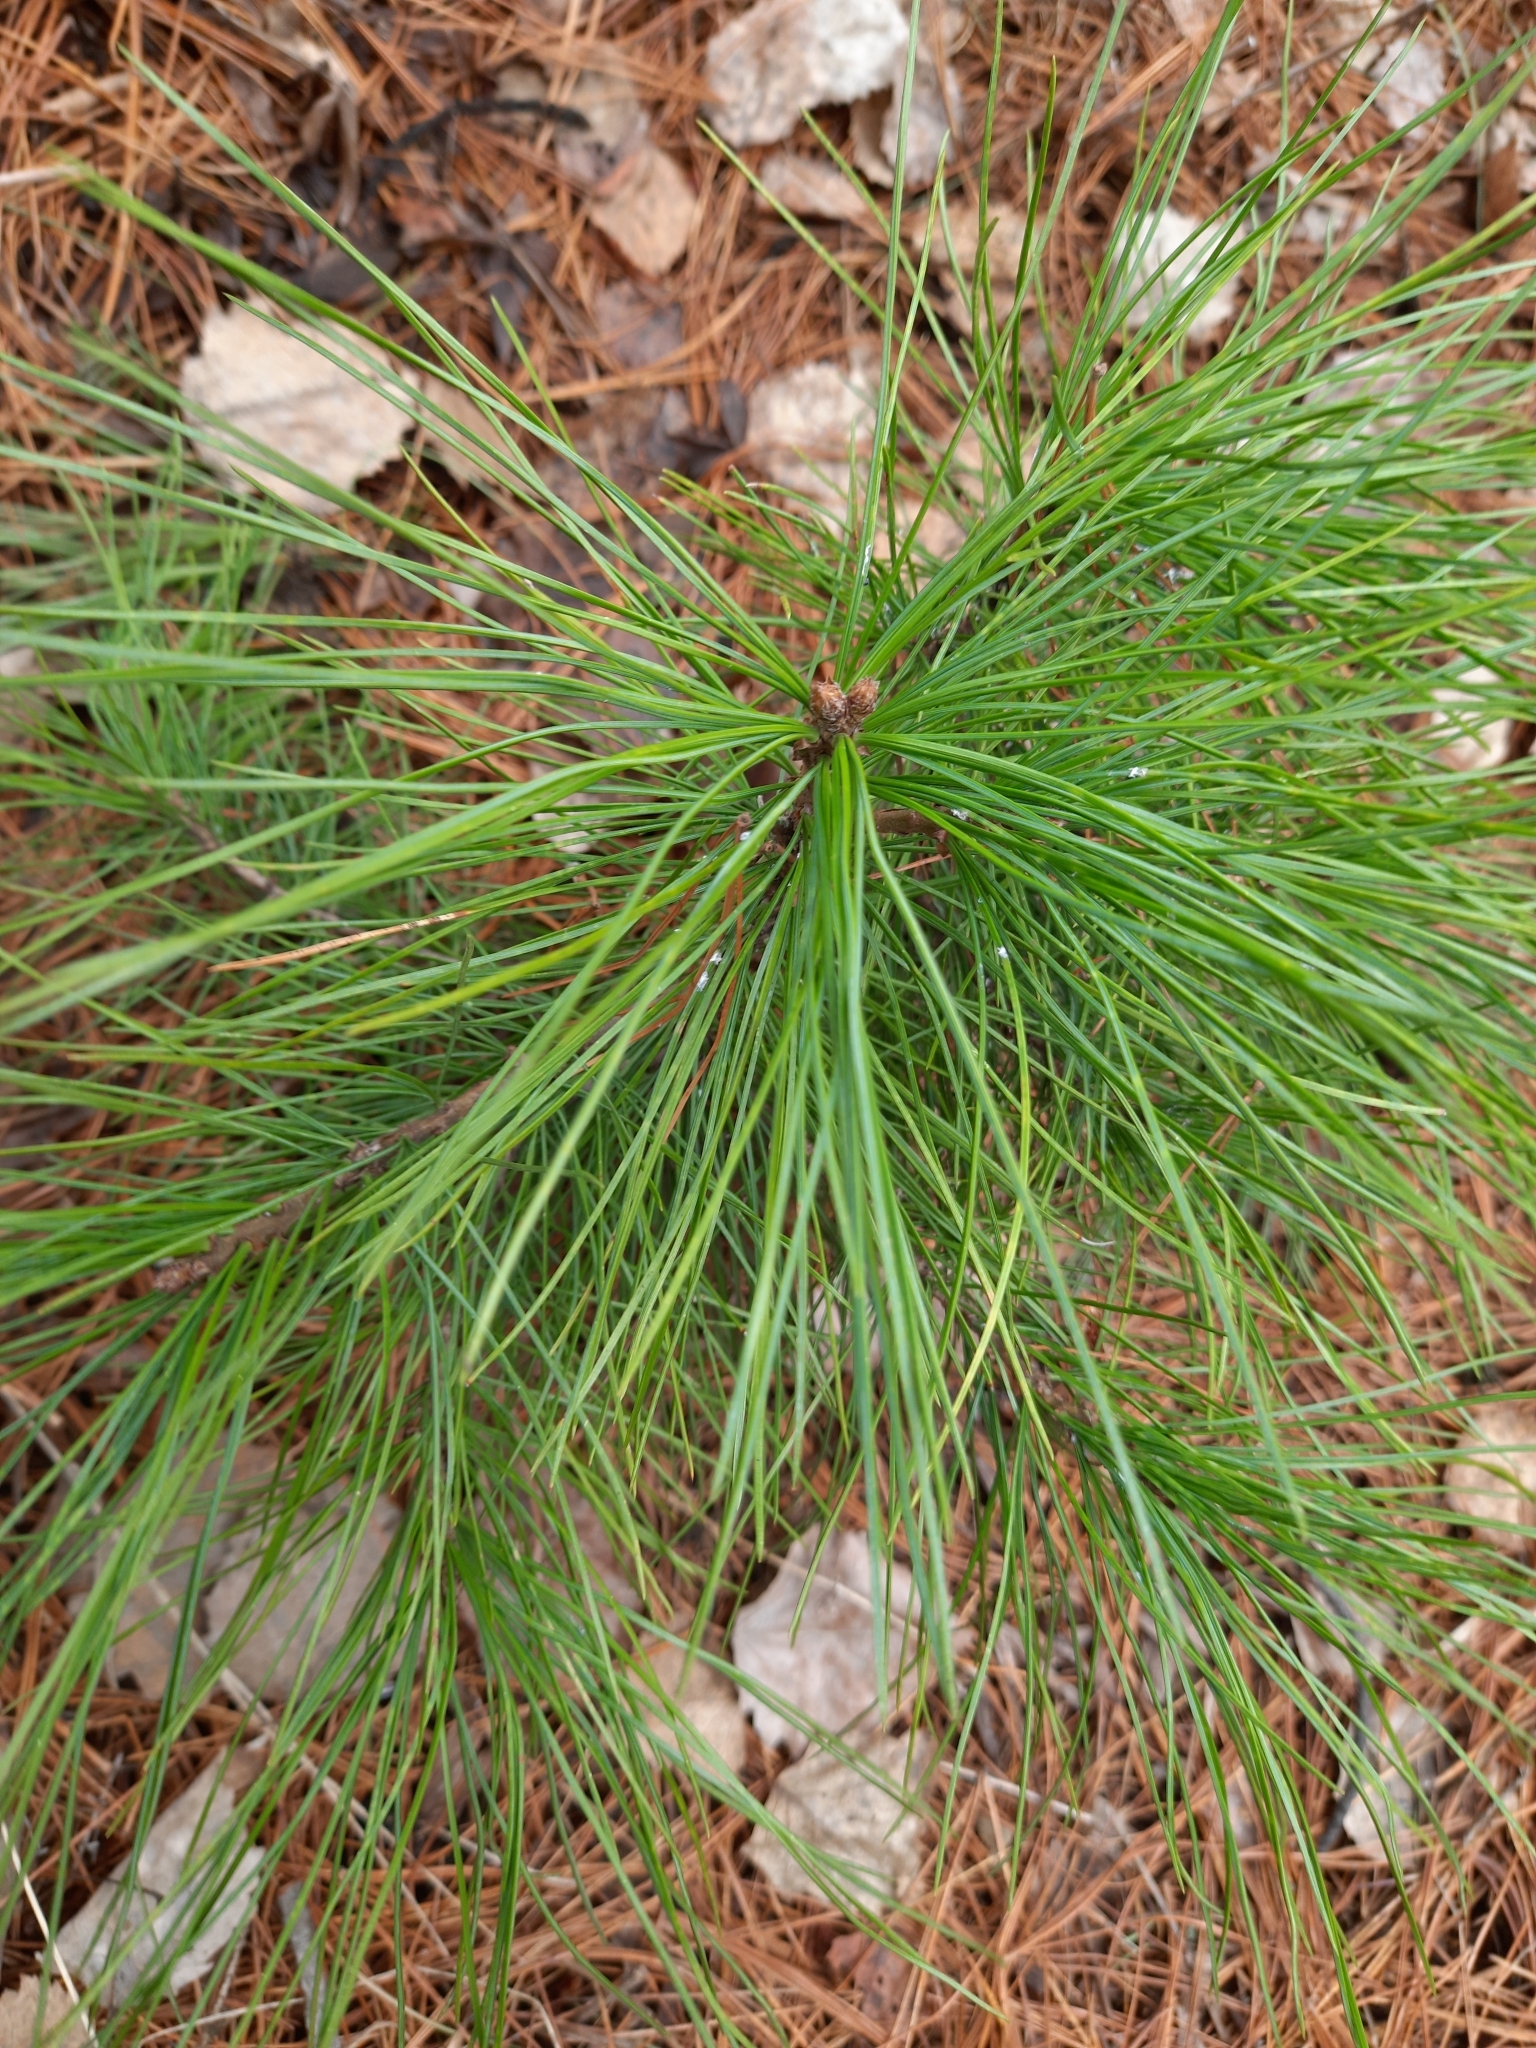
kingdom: Plantae
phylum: Tracheophyta
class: Pinopsida
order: Pinales
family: Pinaceae
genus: Pinus
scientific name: Pinus sibirica
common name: Siberian pine
